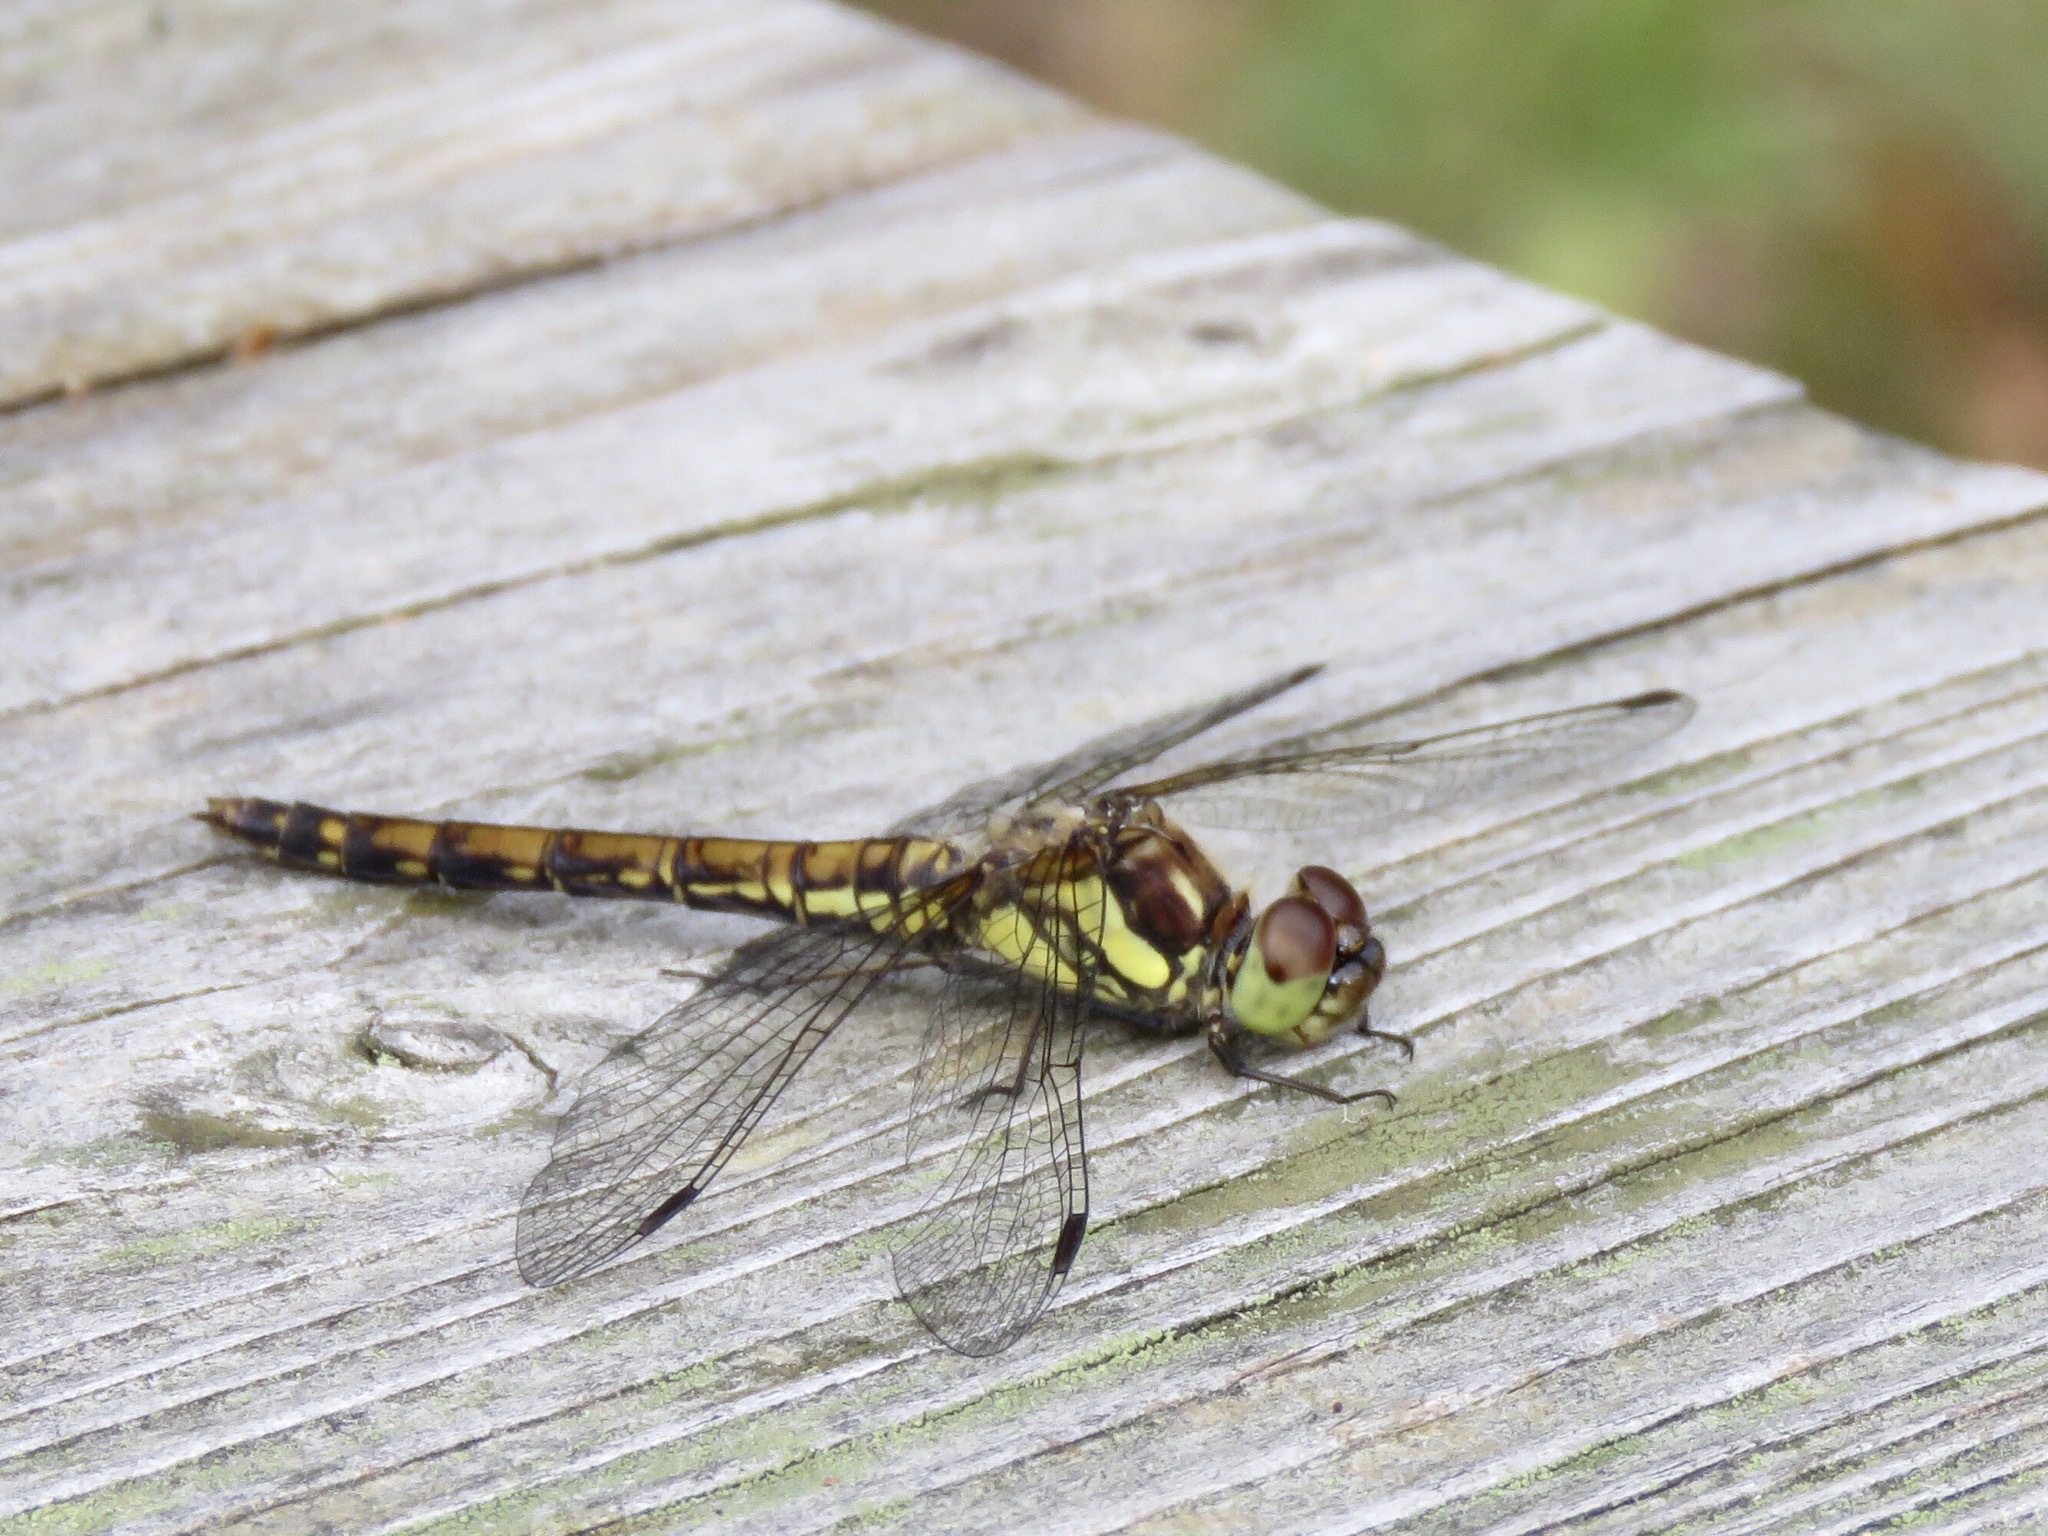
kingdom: Animalia
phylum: Arthropoda
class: Insecta
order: Odonata
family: Libellulidae
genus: Sympetrum
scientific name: Sympetrum striolatum
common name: Common darter
